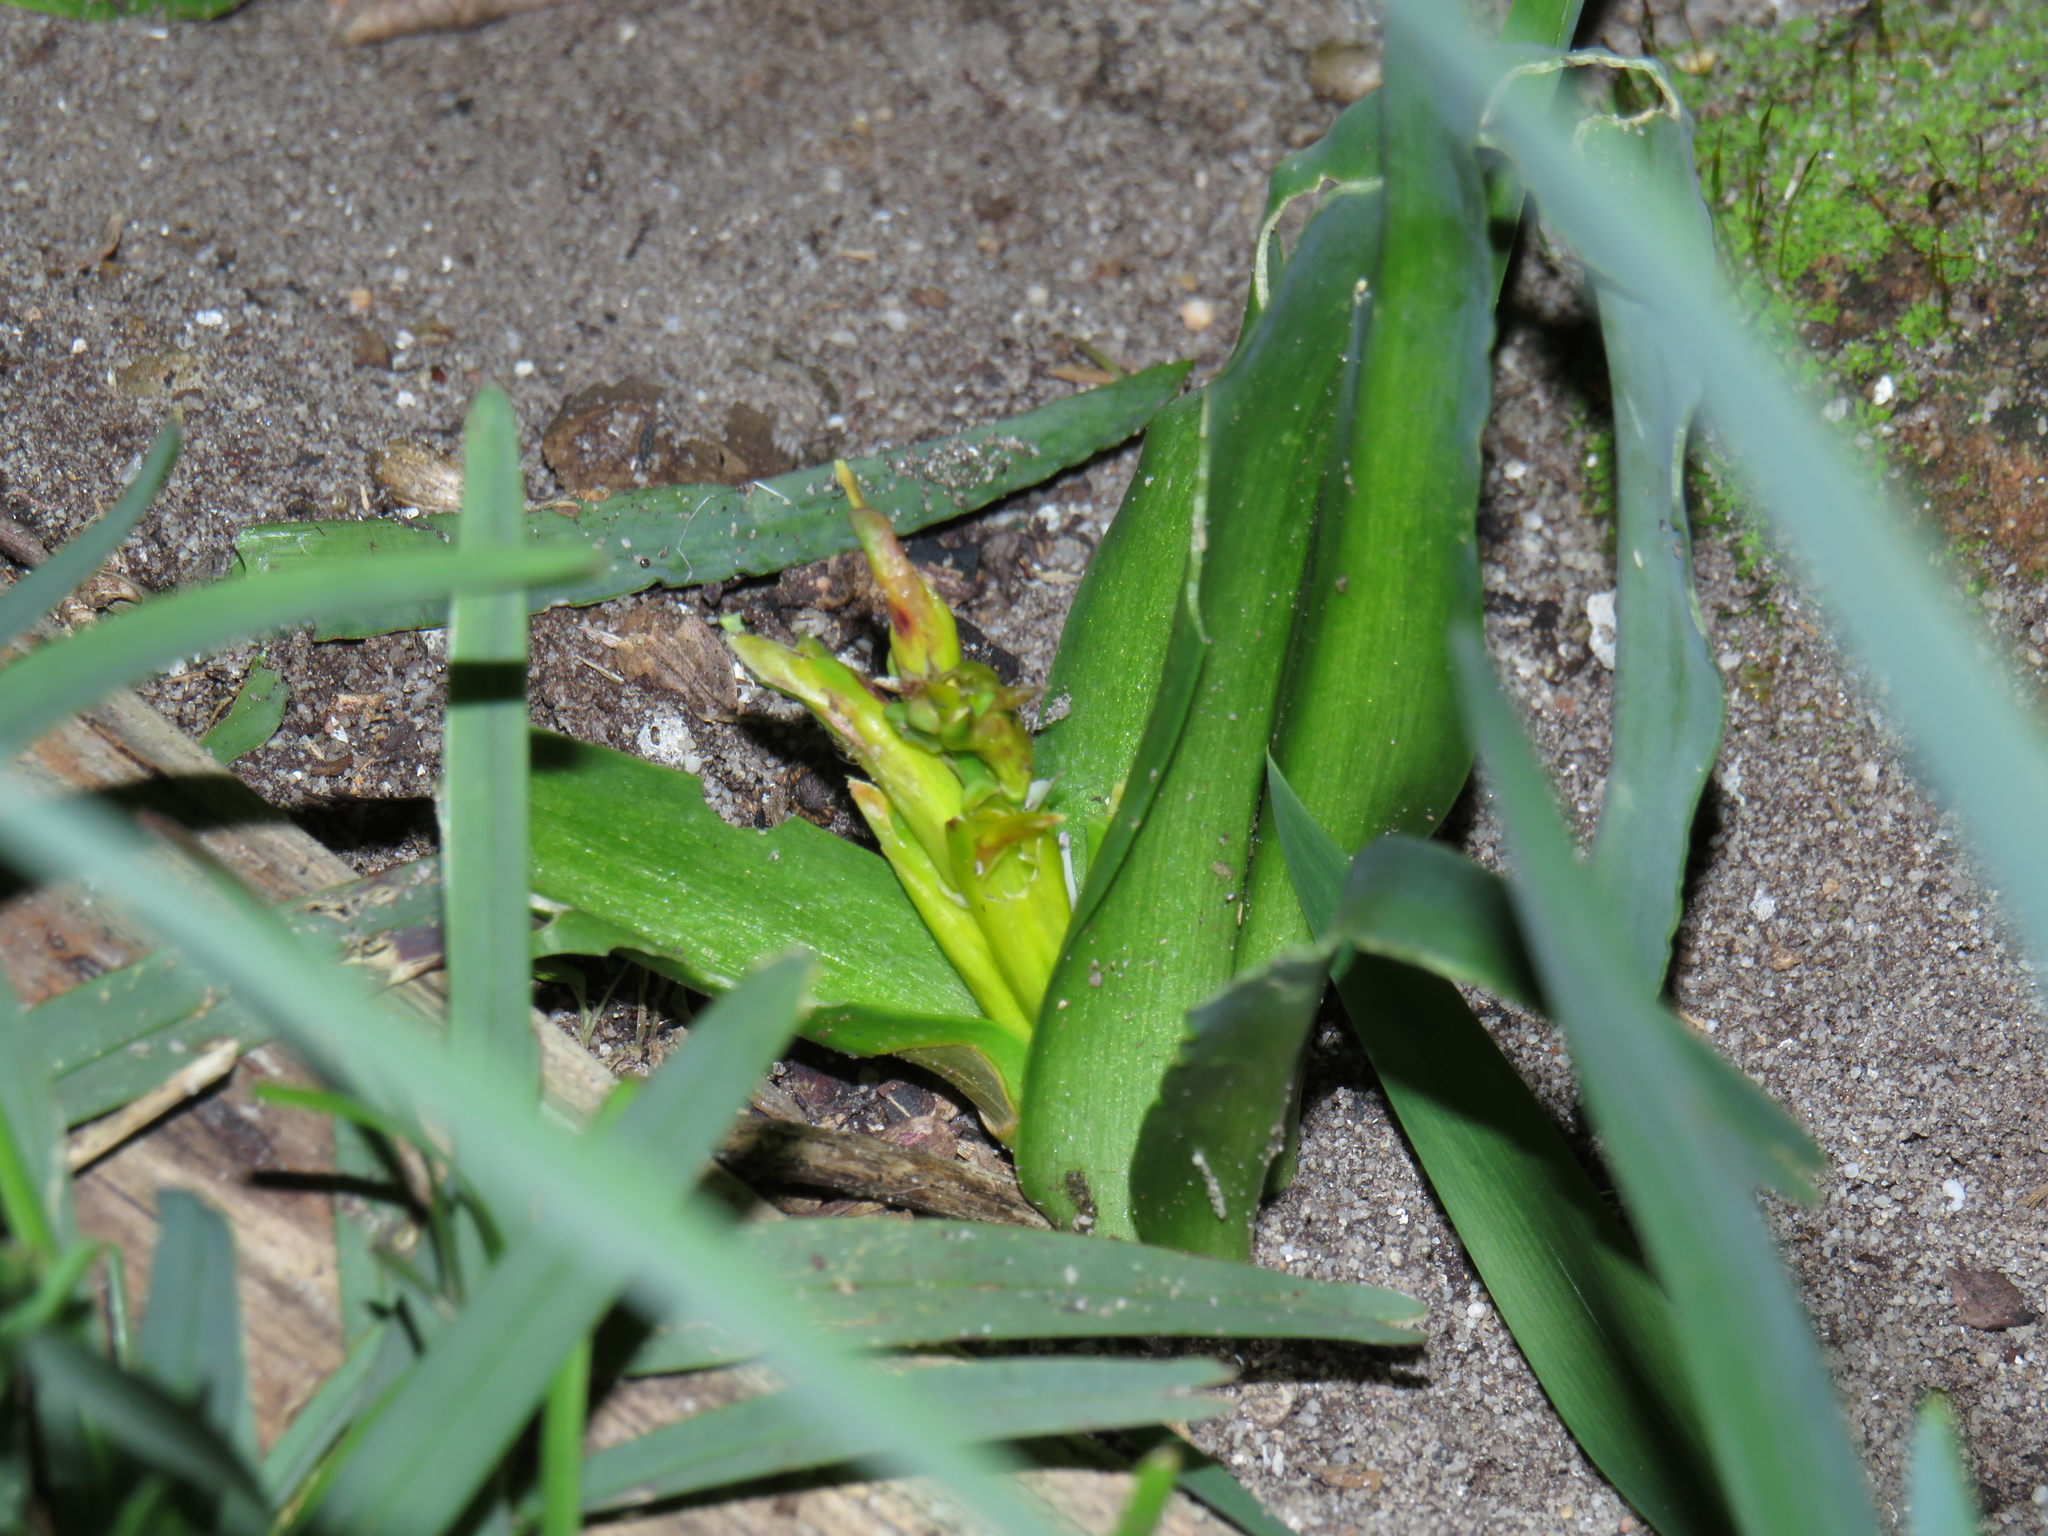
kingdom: Plantae
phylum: Tracheophyta
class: Liliopsida
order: Asparagales
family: Asparagaceae
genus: Lachenalia
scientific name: Lachenalia reflexa
